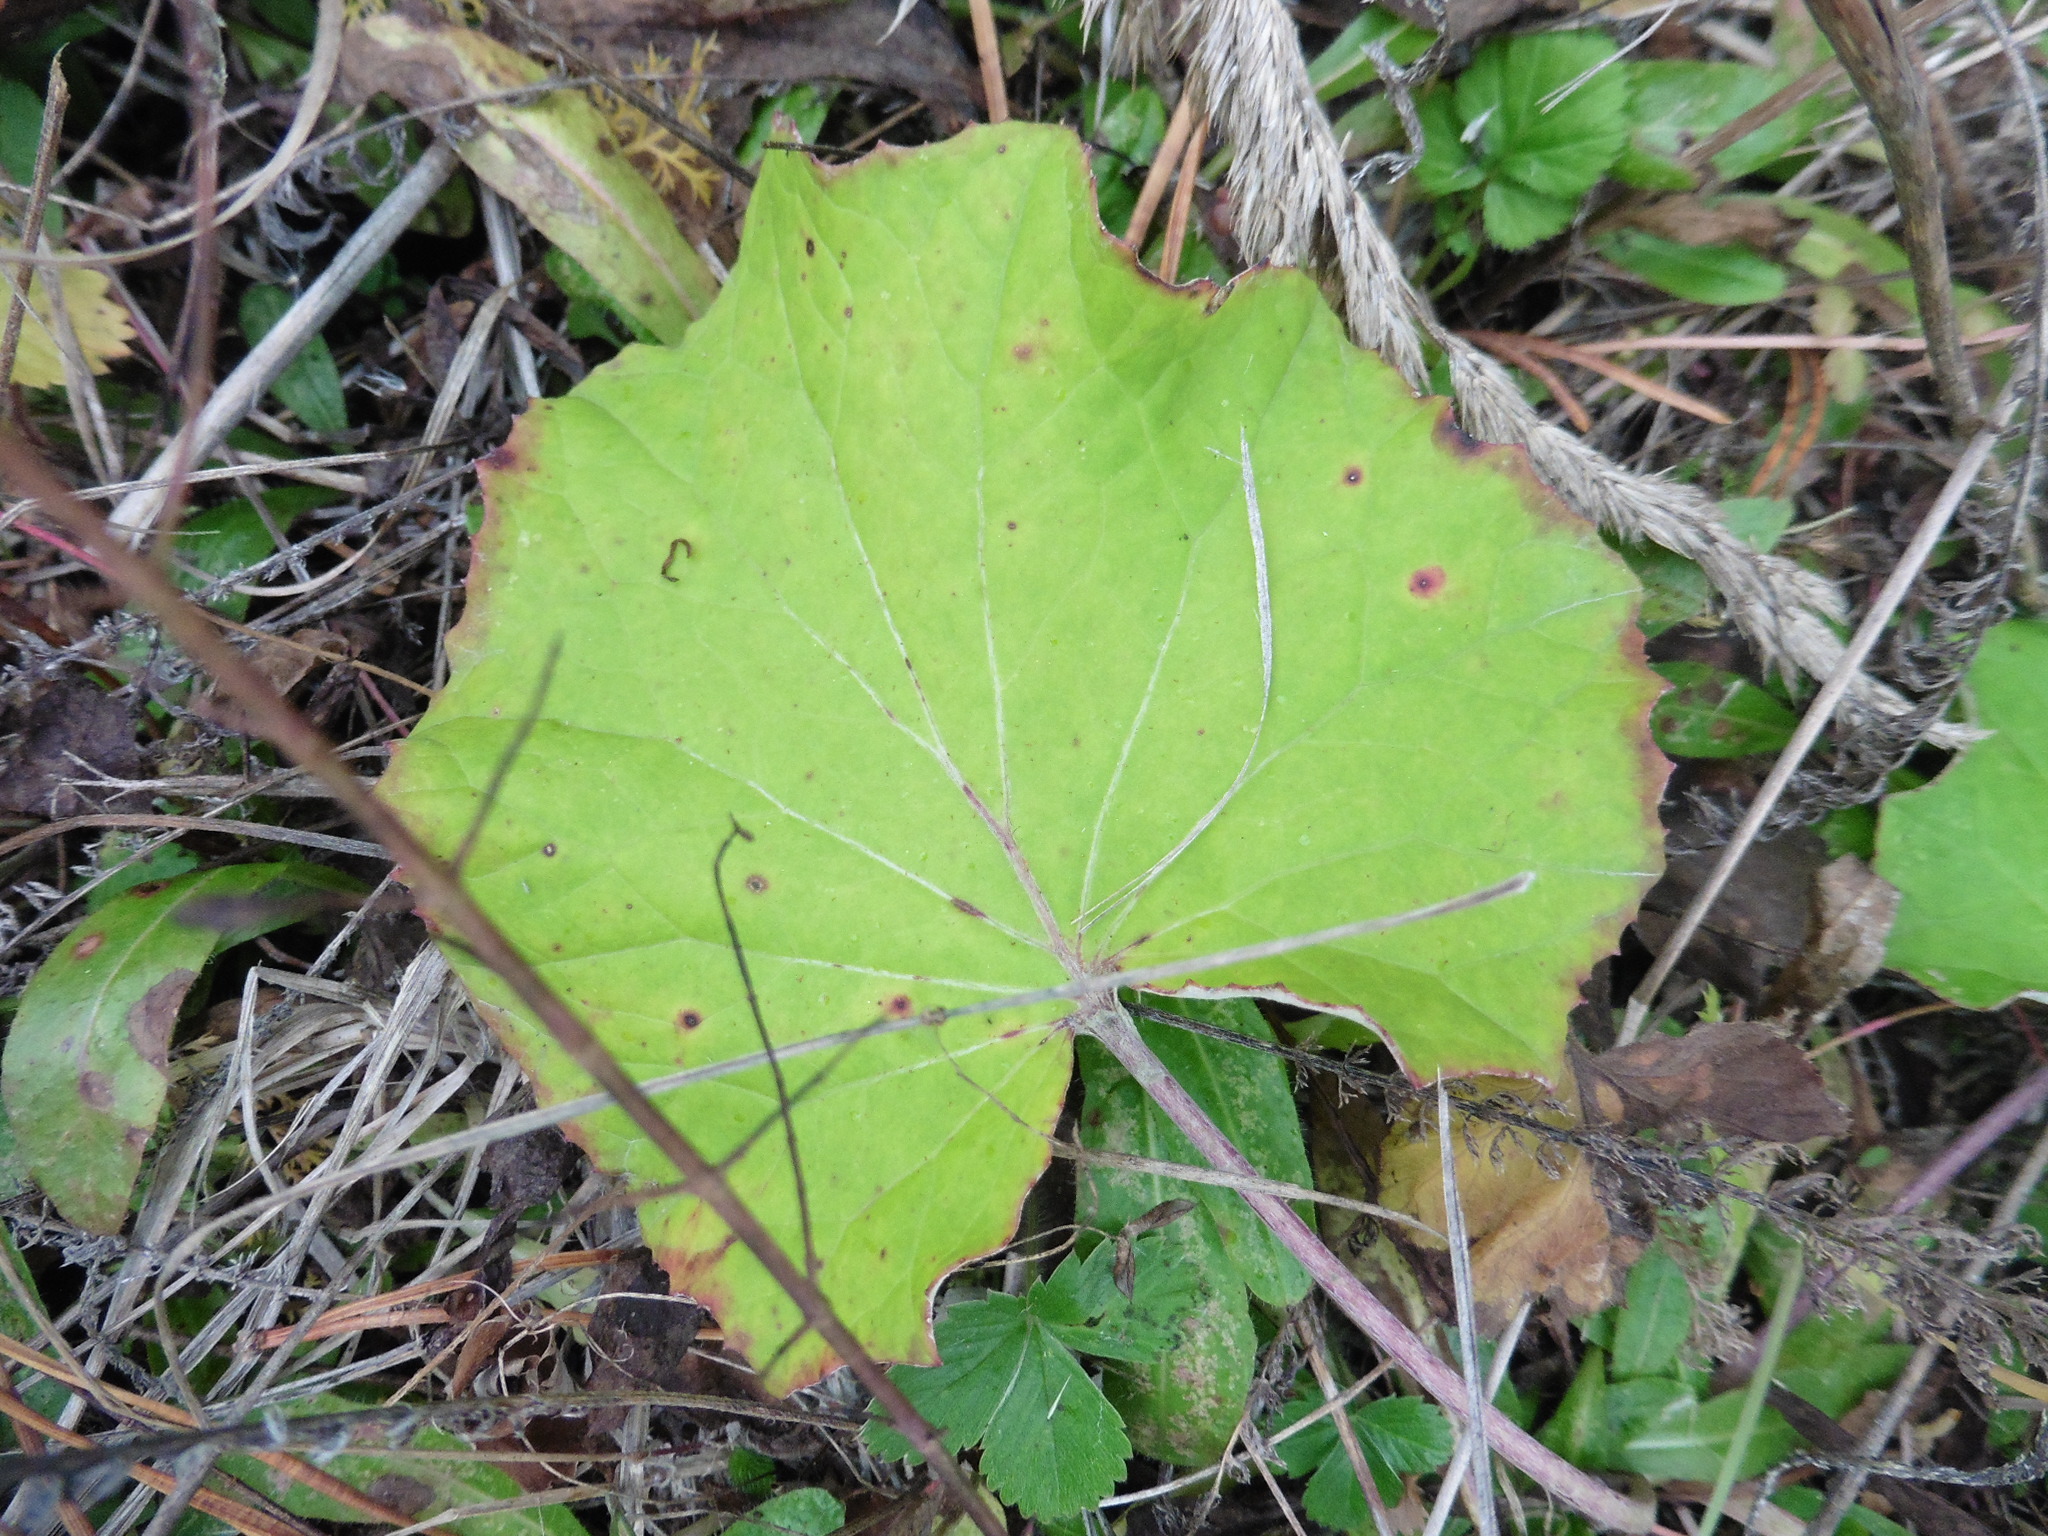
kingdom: Plantae
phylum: Tracheophyta
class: Magnoliopsida
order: Asterales
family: Asteraceae
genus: Tussilago
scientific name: Tussilago farfara
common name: Coltsfoot
